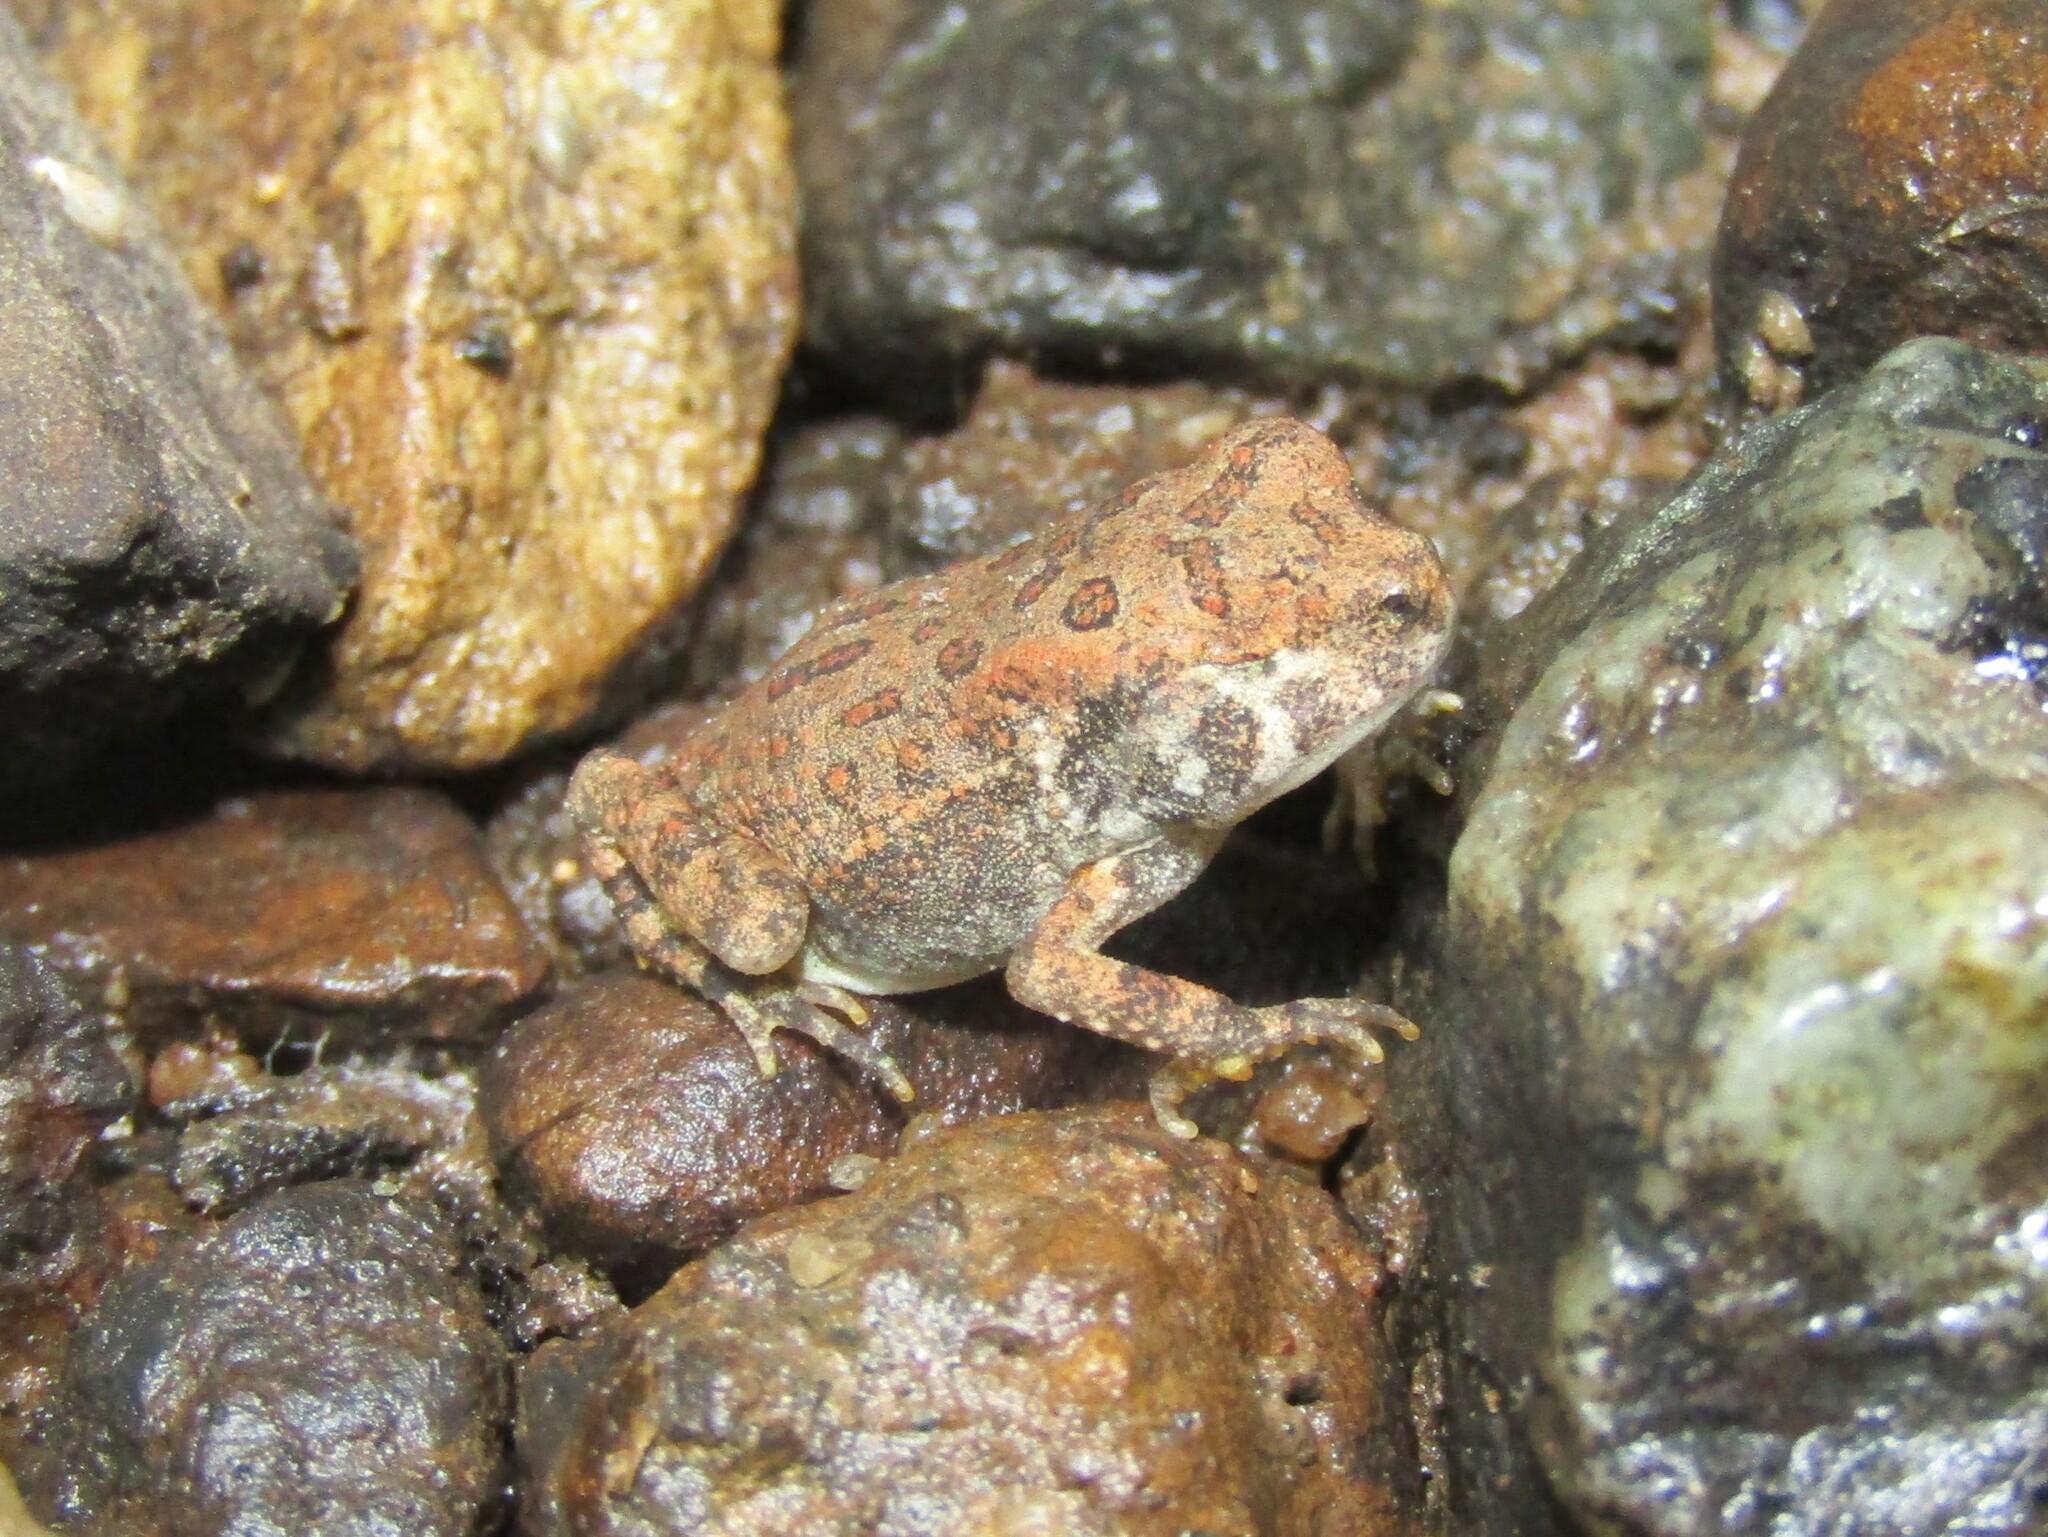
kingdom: Animalia
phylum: Chordata
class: Amphibia
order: Anura
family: Bufonidae
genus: Anaxyrus
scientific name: Anaxyrus fowleri
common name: Fowler's toad
